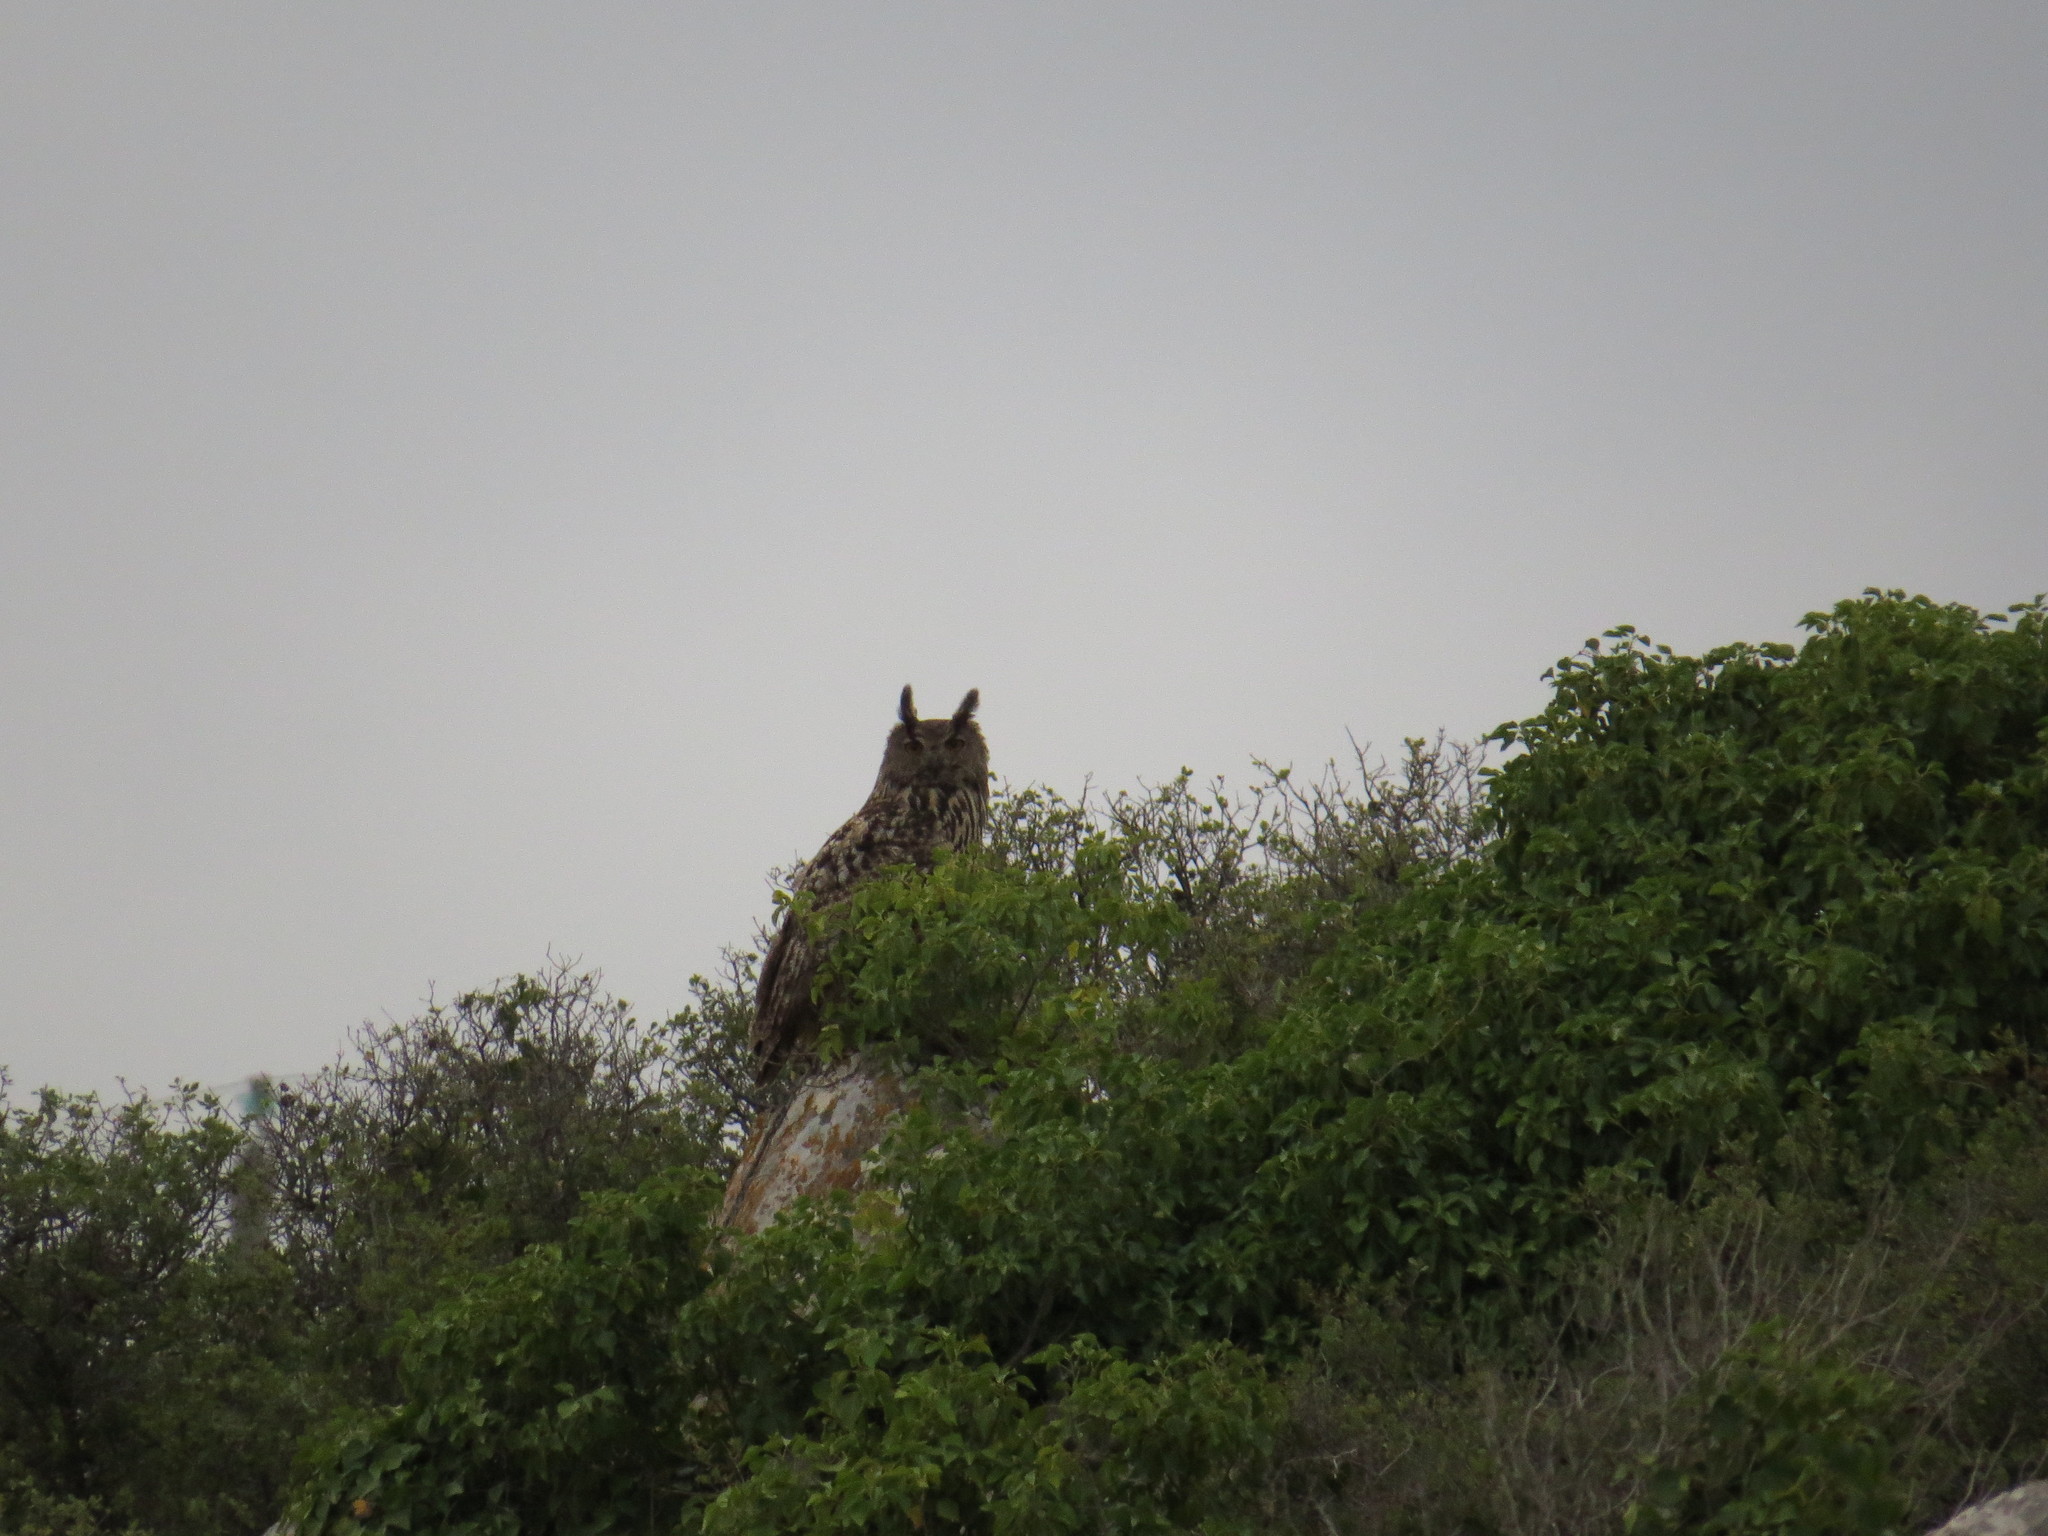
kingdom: Animalia
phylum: Chordata
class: Aves
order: Strigiformes
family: Strigidae
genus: Bubo
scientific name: Bubo bubo
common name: Eurasian eagle-owl
